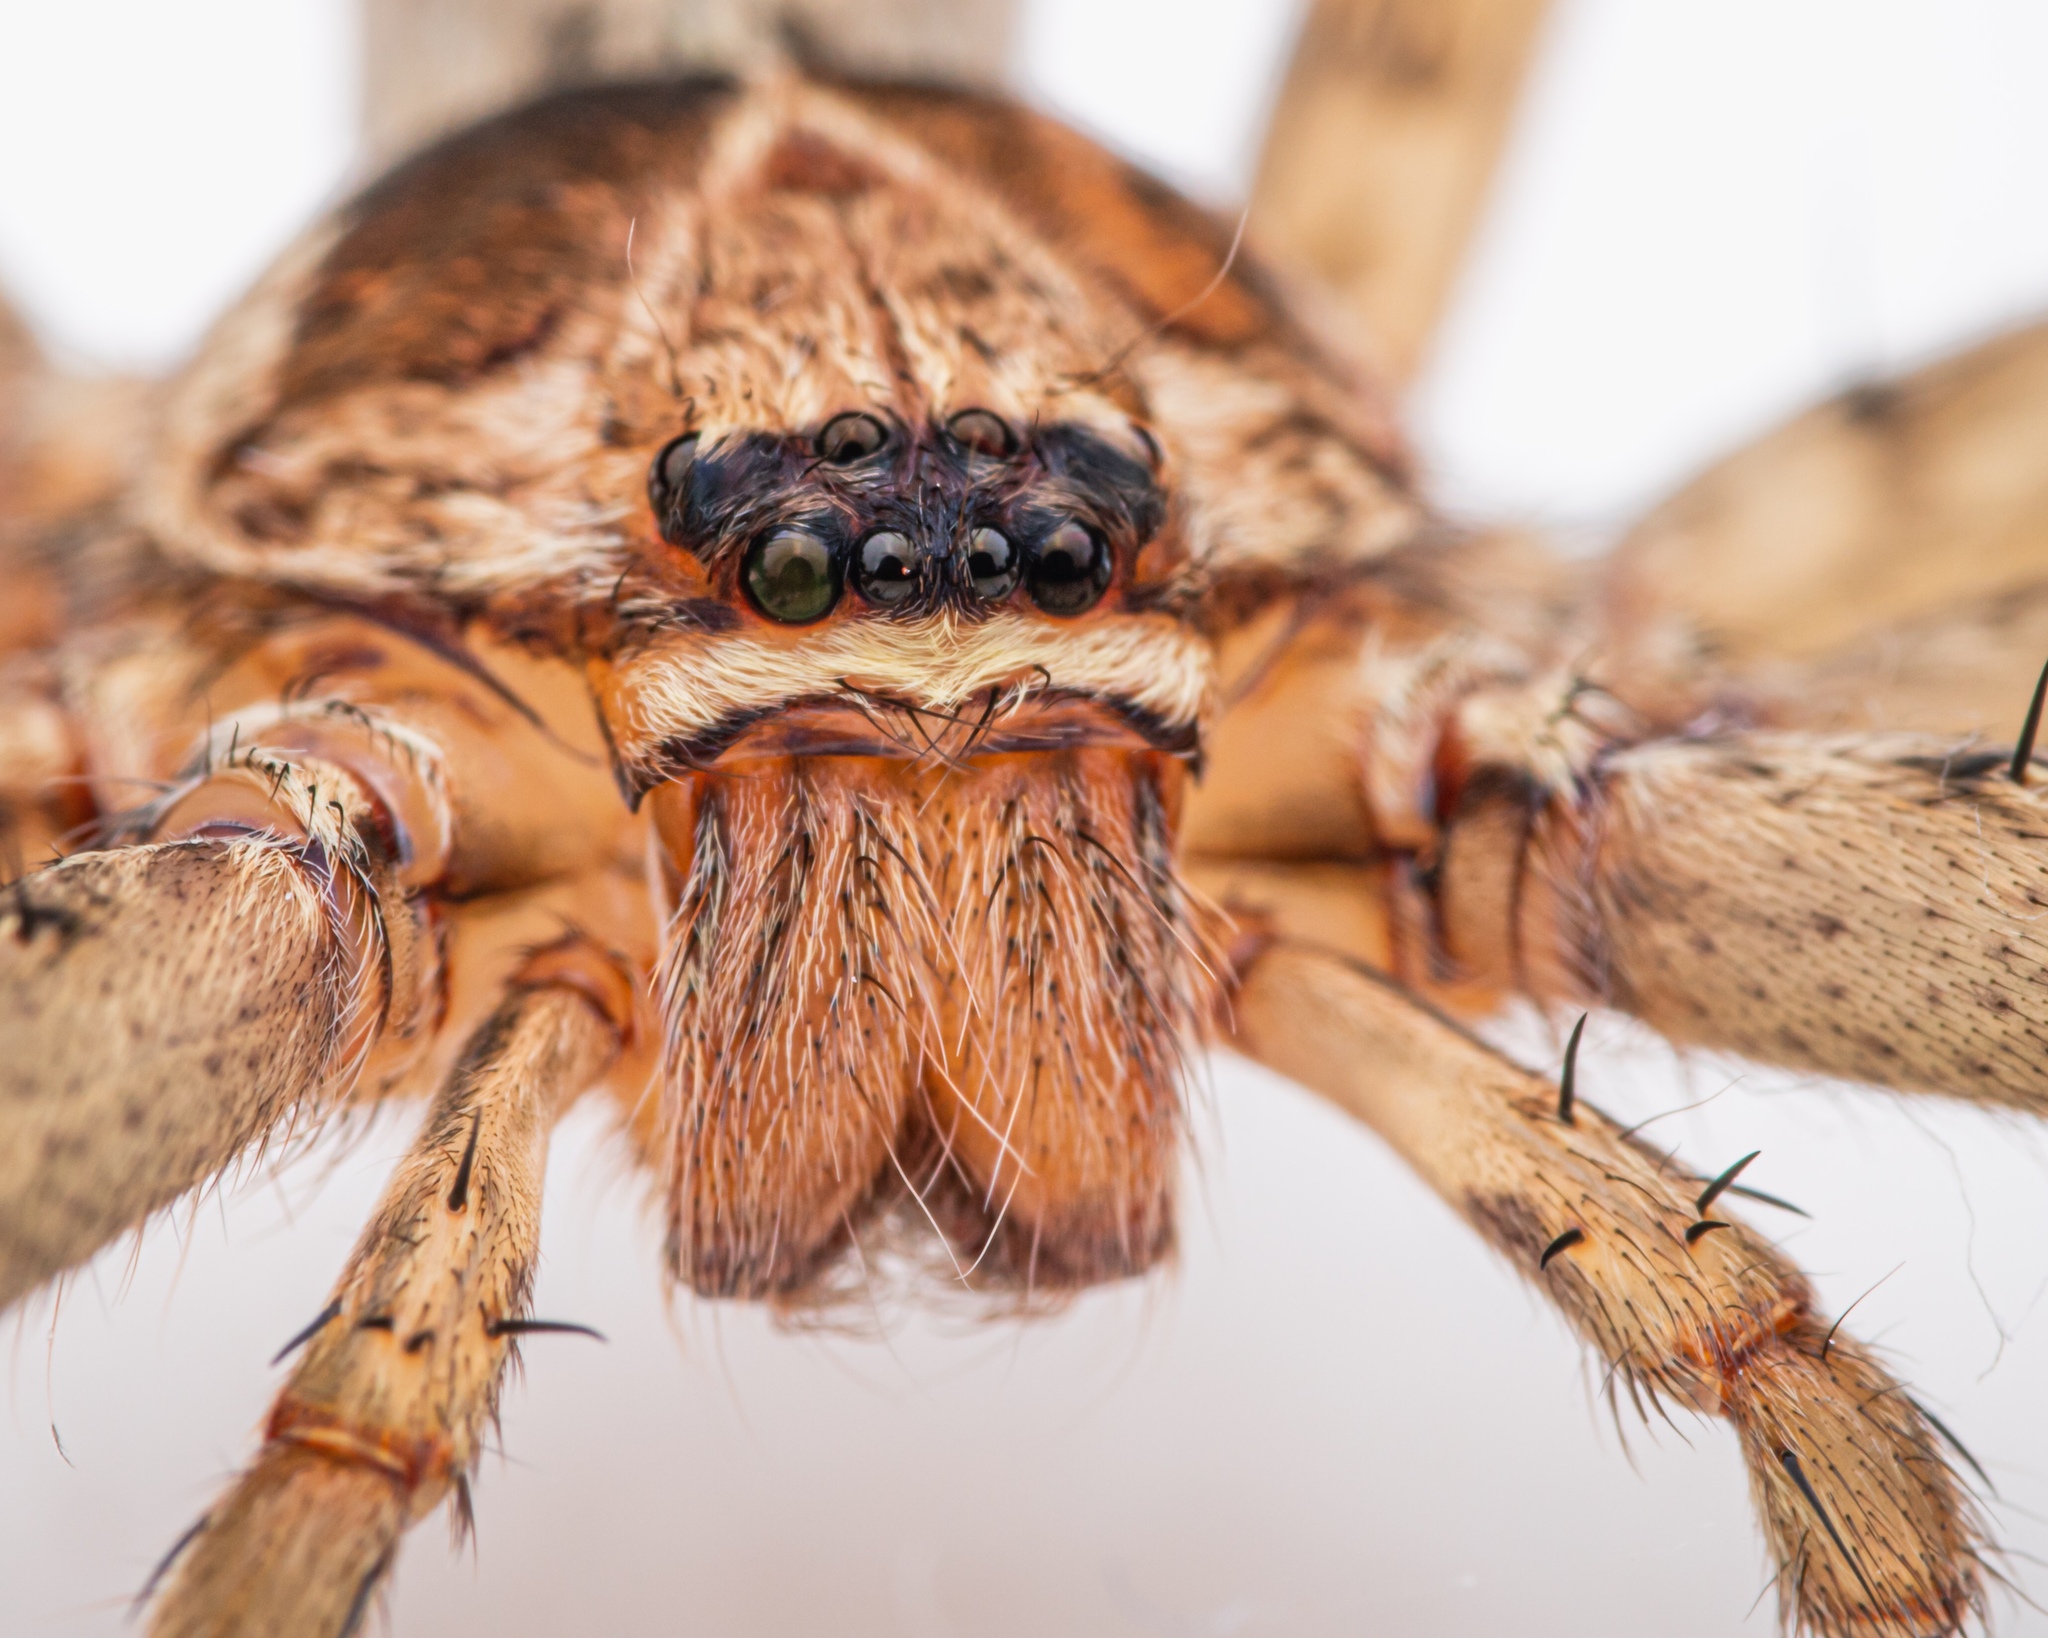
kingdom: Animalia
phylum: Arthropoda
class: Arachnida
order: Araneae
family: Sparassidae
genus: Heteropoda
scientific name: Heteropoda venatoria
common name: Huntsman spider
